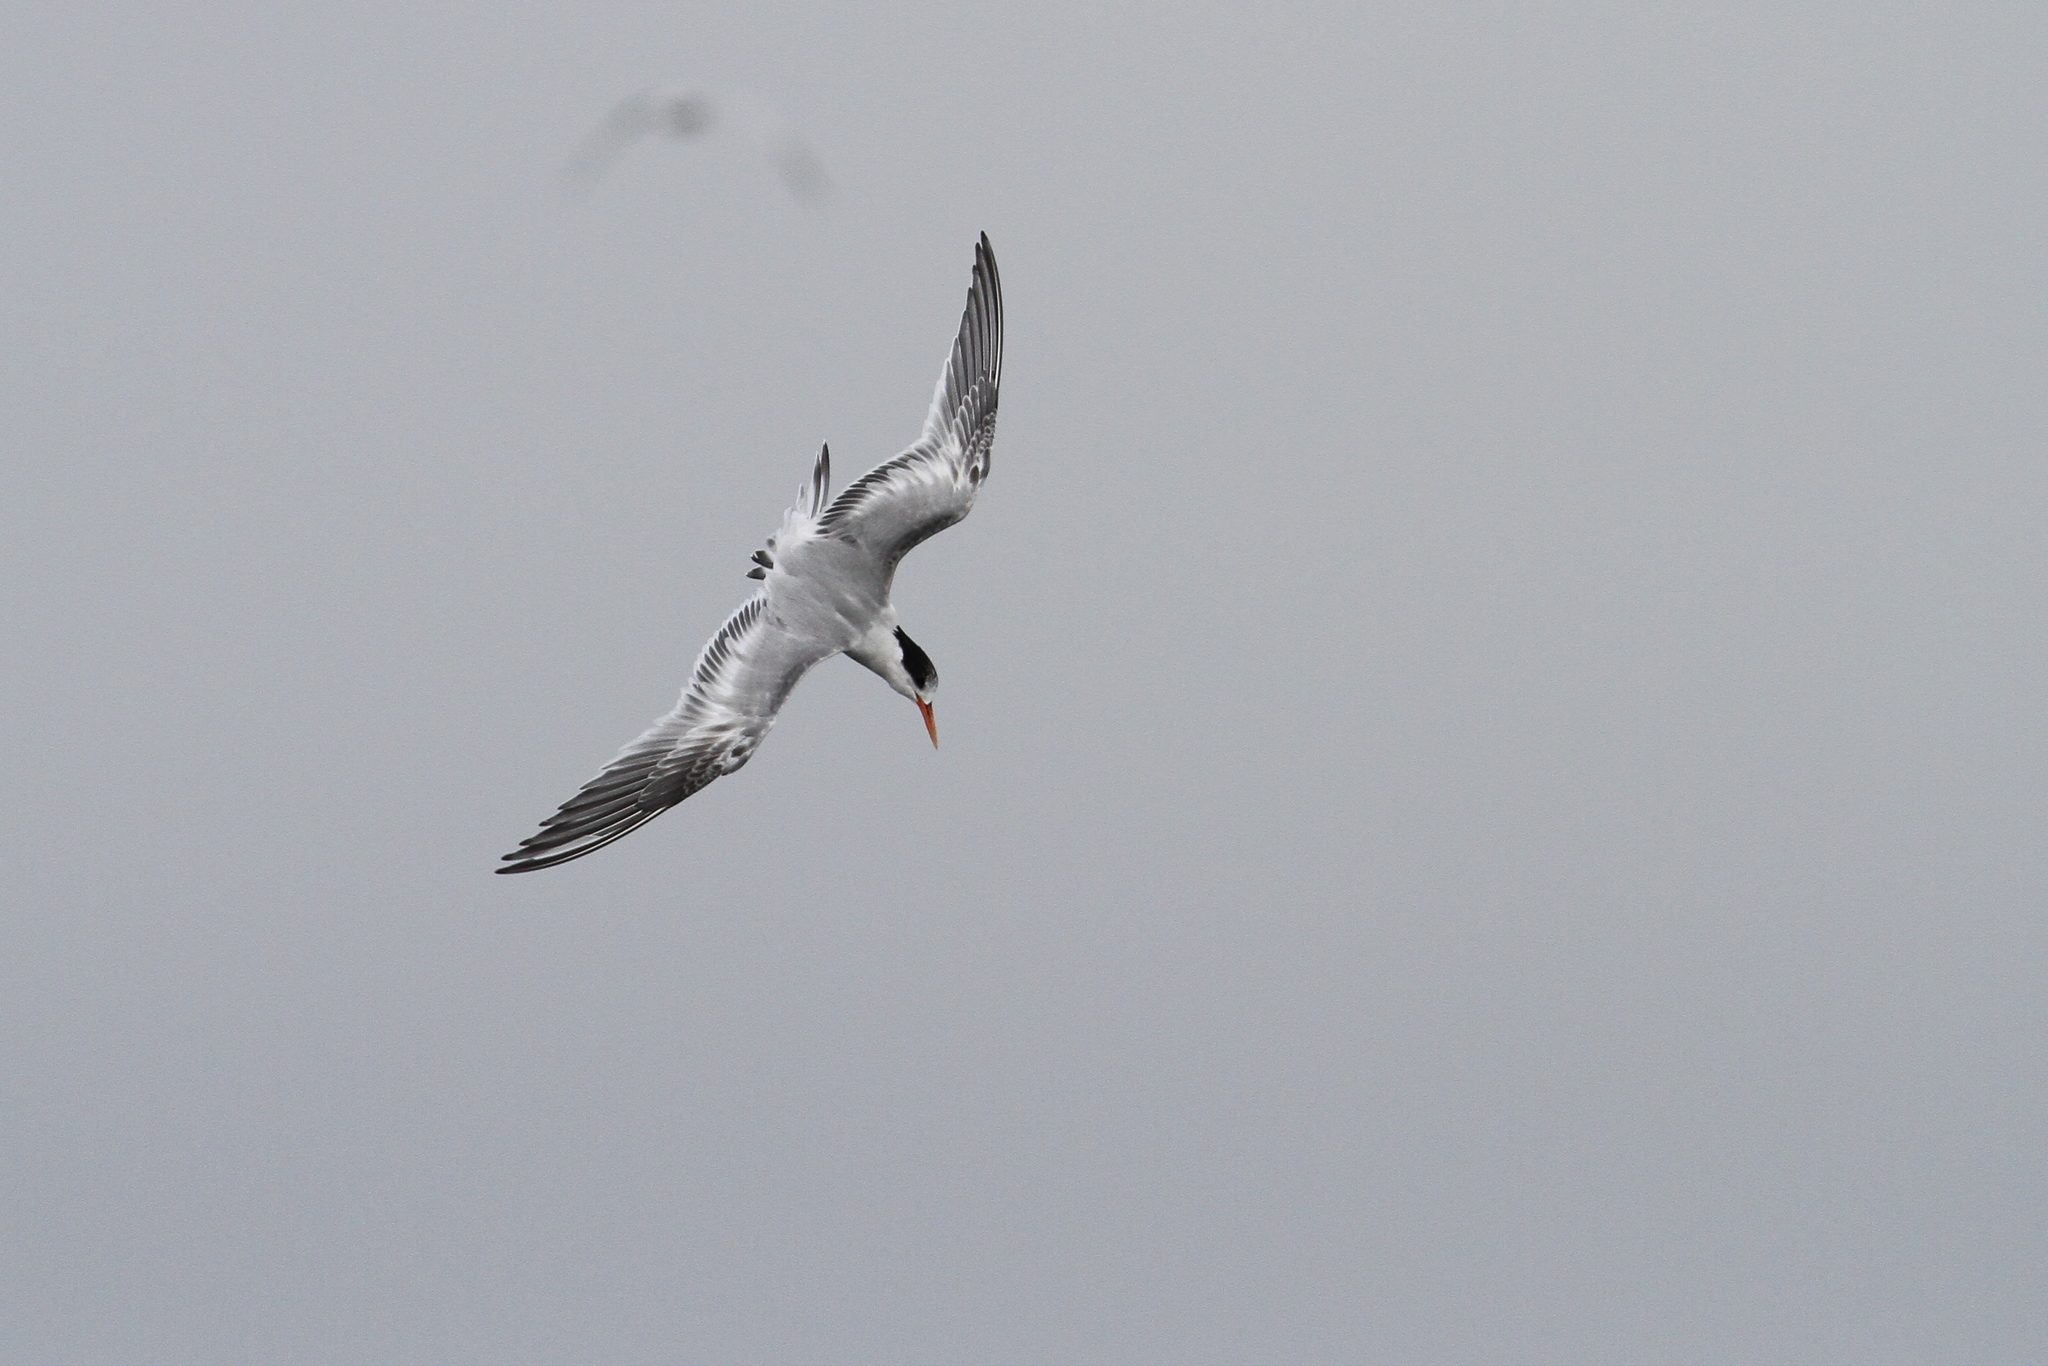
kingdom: Animalia
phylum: Chordata
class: Aves
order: Charadriiformes
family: Laridae
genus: Thalasseus
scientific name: Thalasseus elegans
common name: Elegant tern
